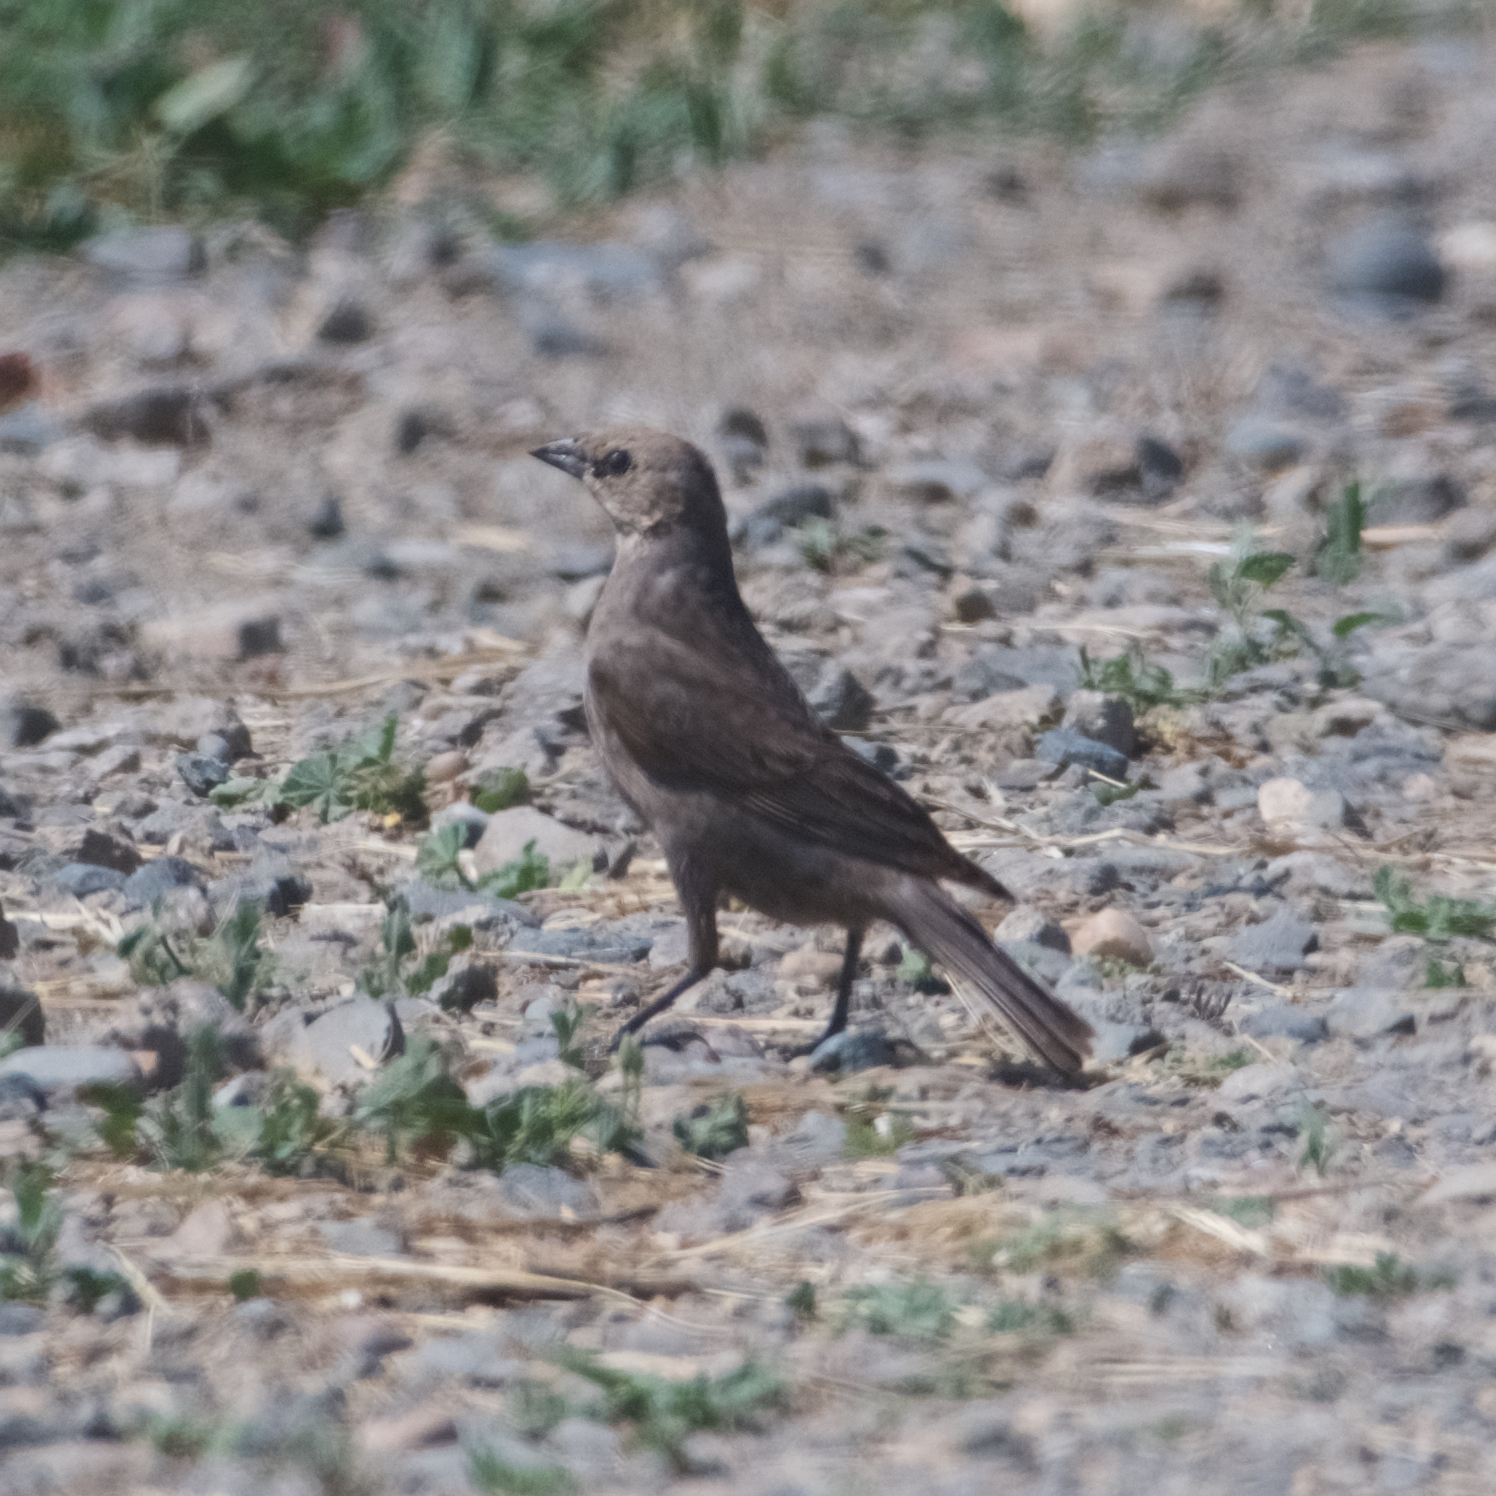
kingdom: Animalia
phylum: Chordata
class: Aves
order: Passeriformes
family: Icteridae
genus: Euphagus
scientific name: Euphagus cyanocephalus
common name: Brewer's blackbird
